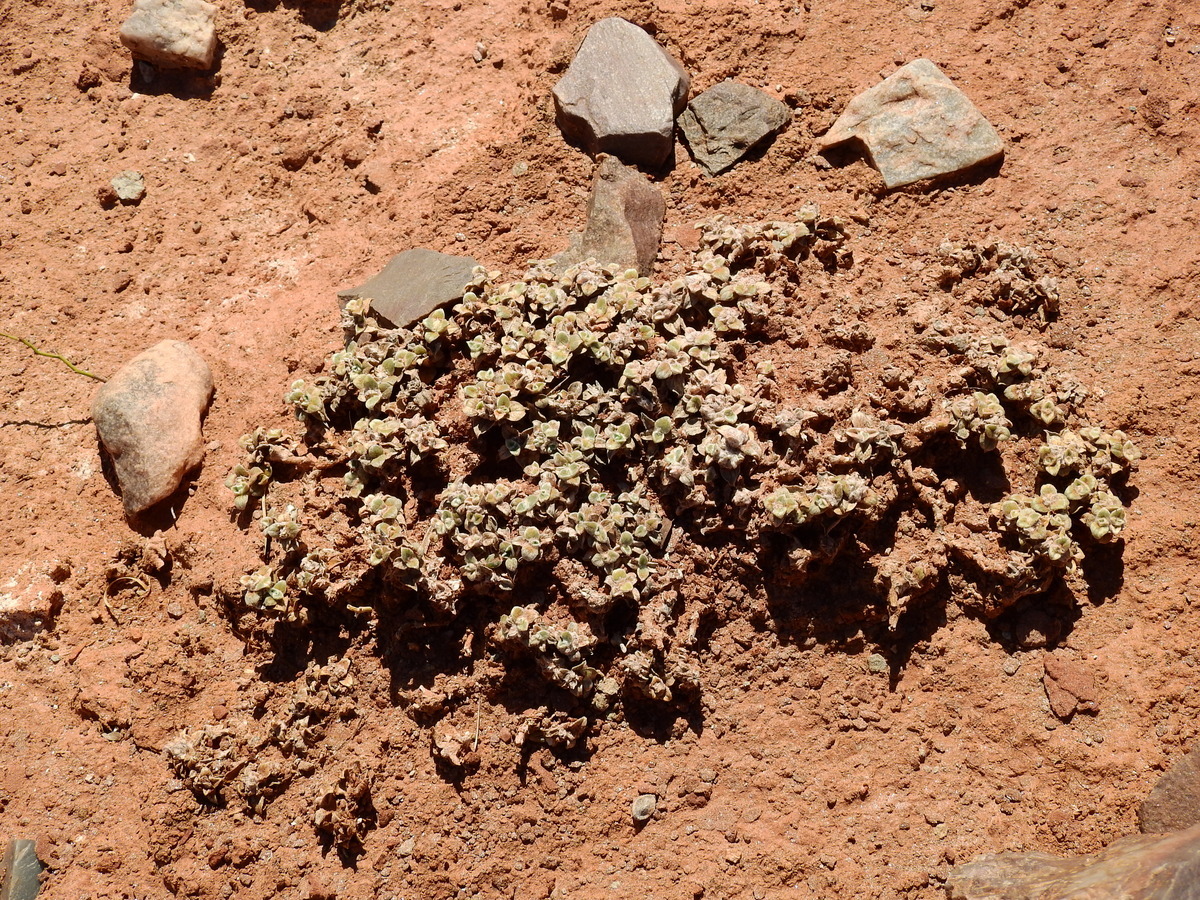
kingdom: Plantae
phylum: Tracheophyta
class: Magnoliopsida
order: Caryophyllales
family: Amaranthaceae
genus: Gomphrena
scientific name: Gomphrena colosacana
